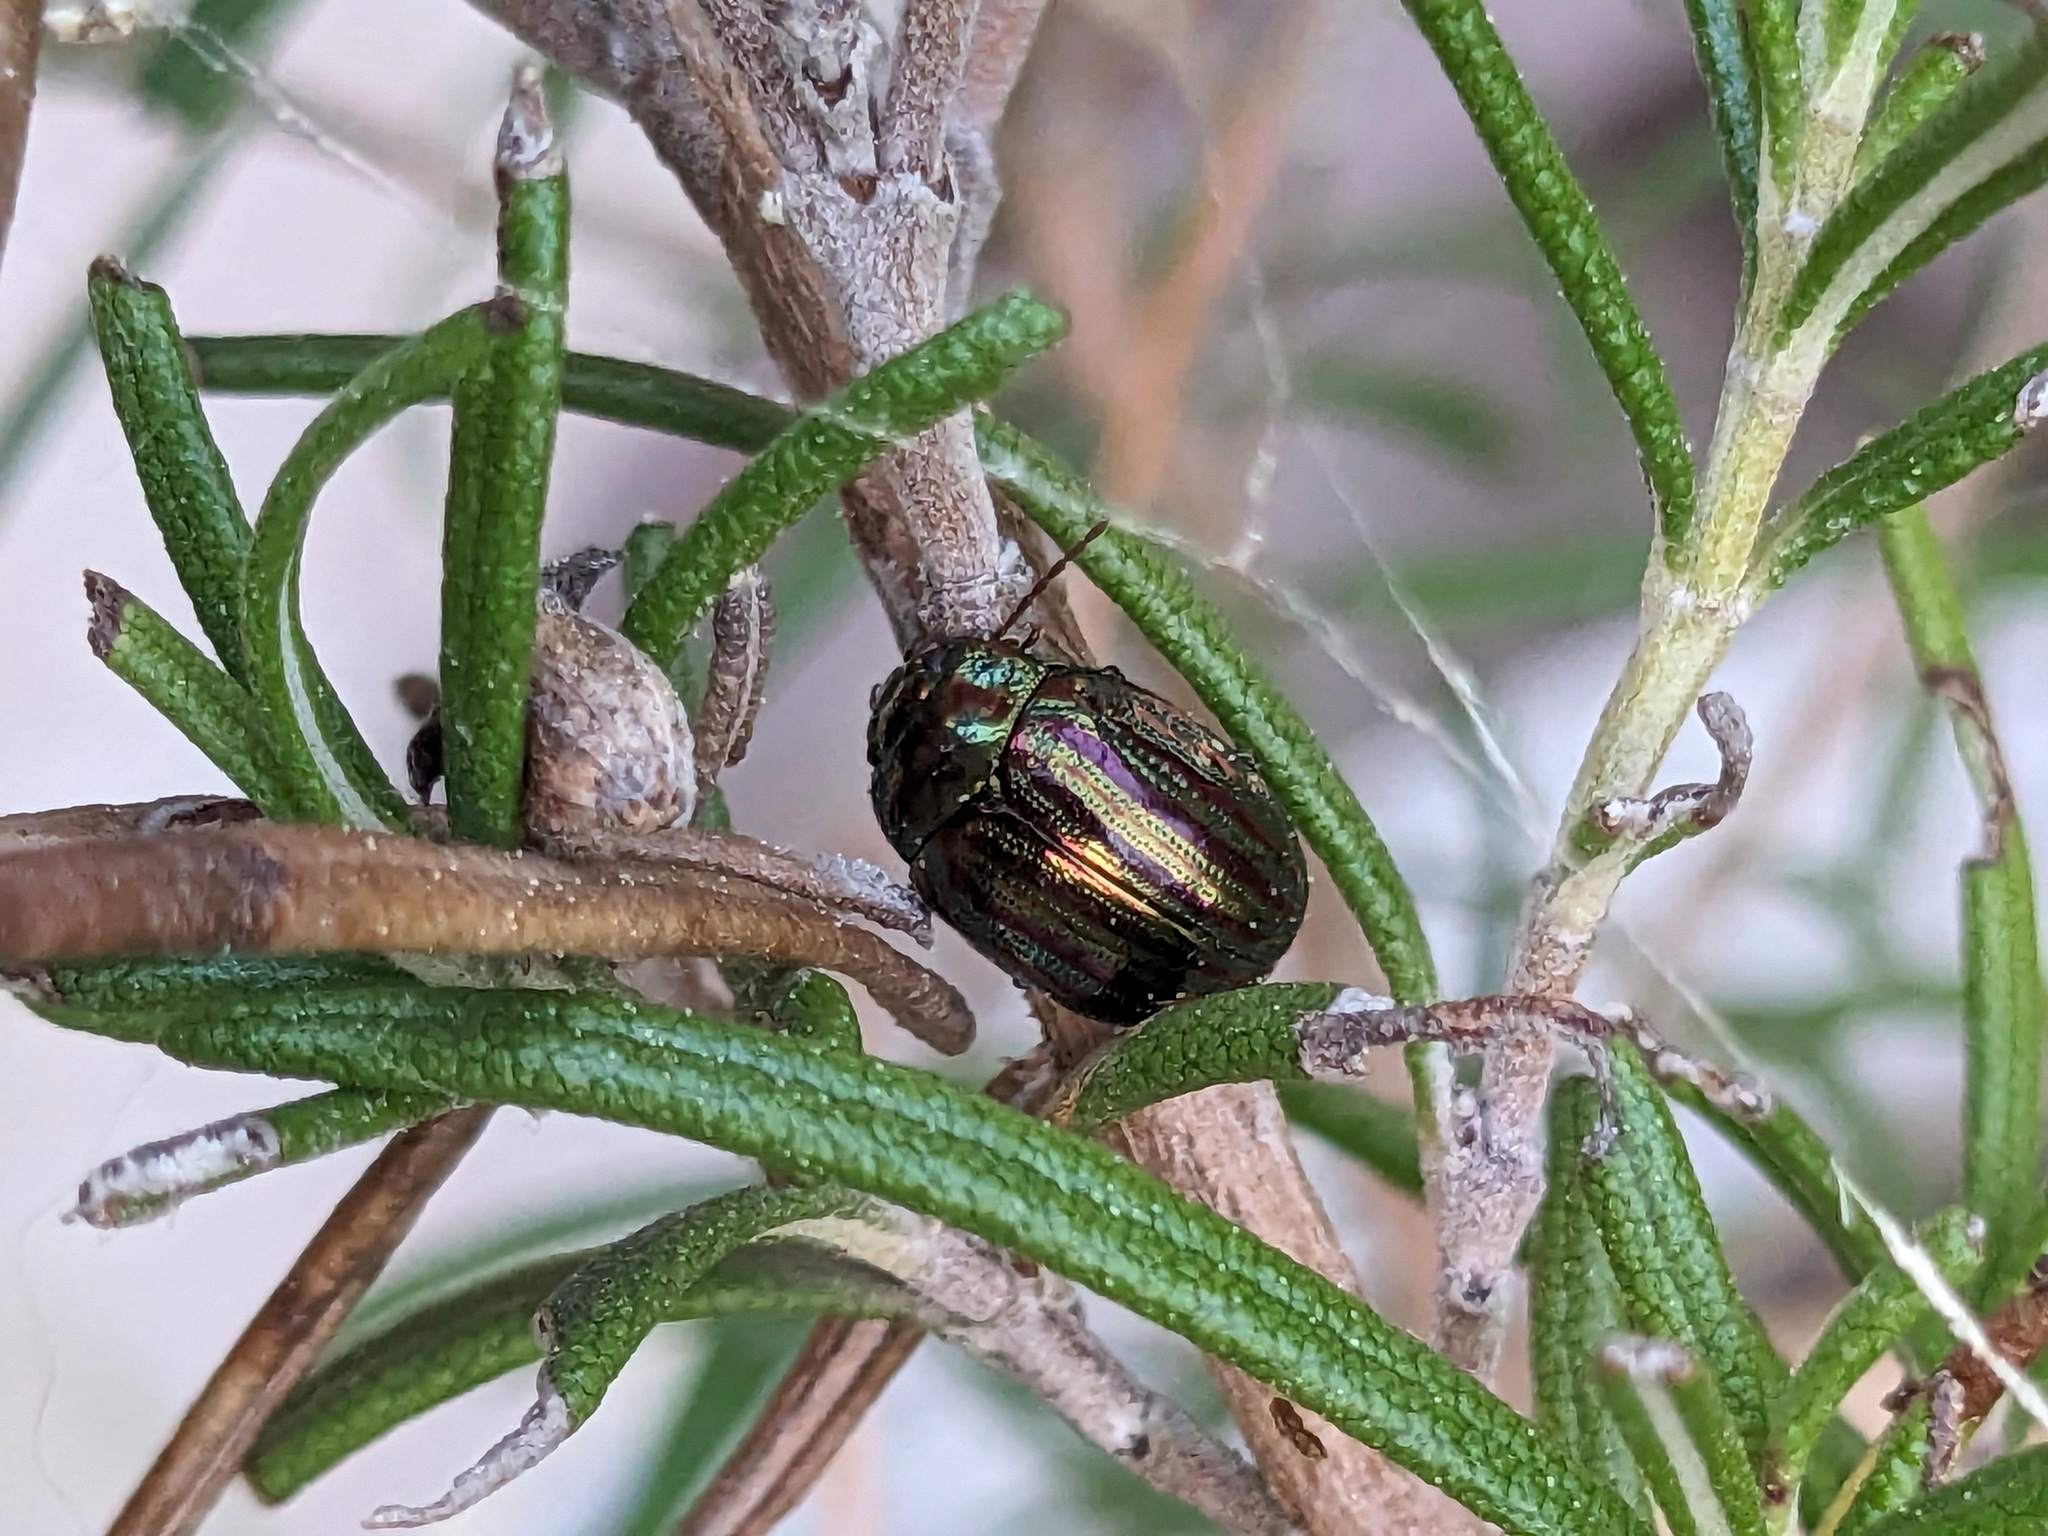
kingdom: Animalia
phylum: Arthropoda
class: Insecta
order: Coleoptera
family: Chrysomelidae
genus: Chrysolina
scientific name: Chrysolina americana
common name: Rosemary beetle
